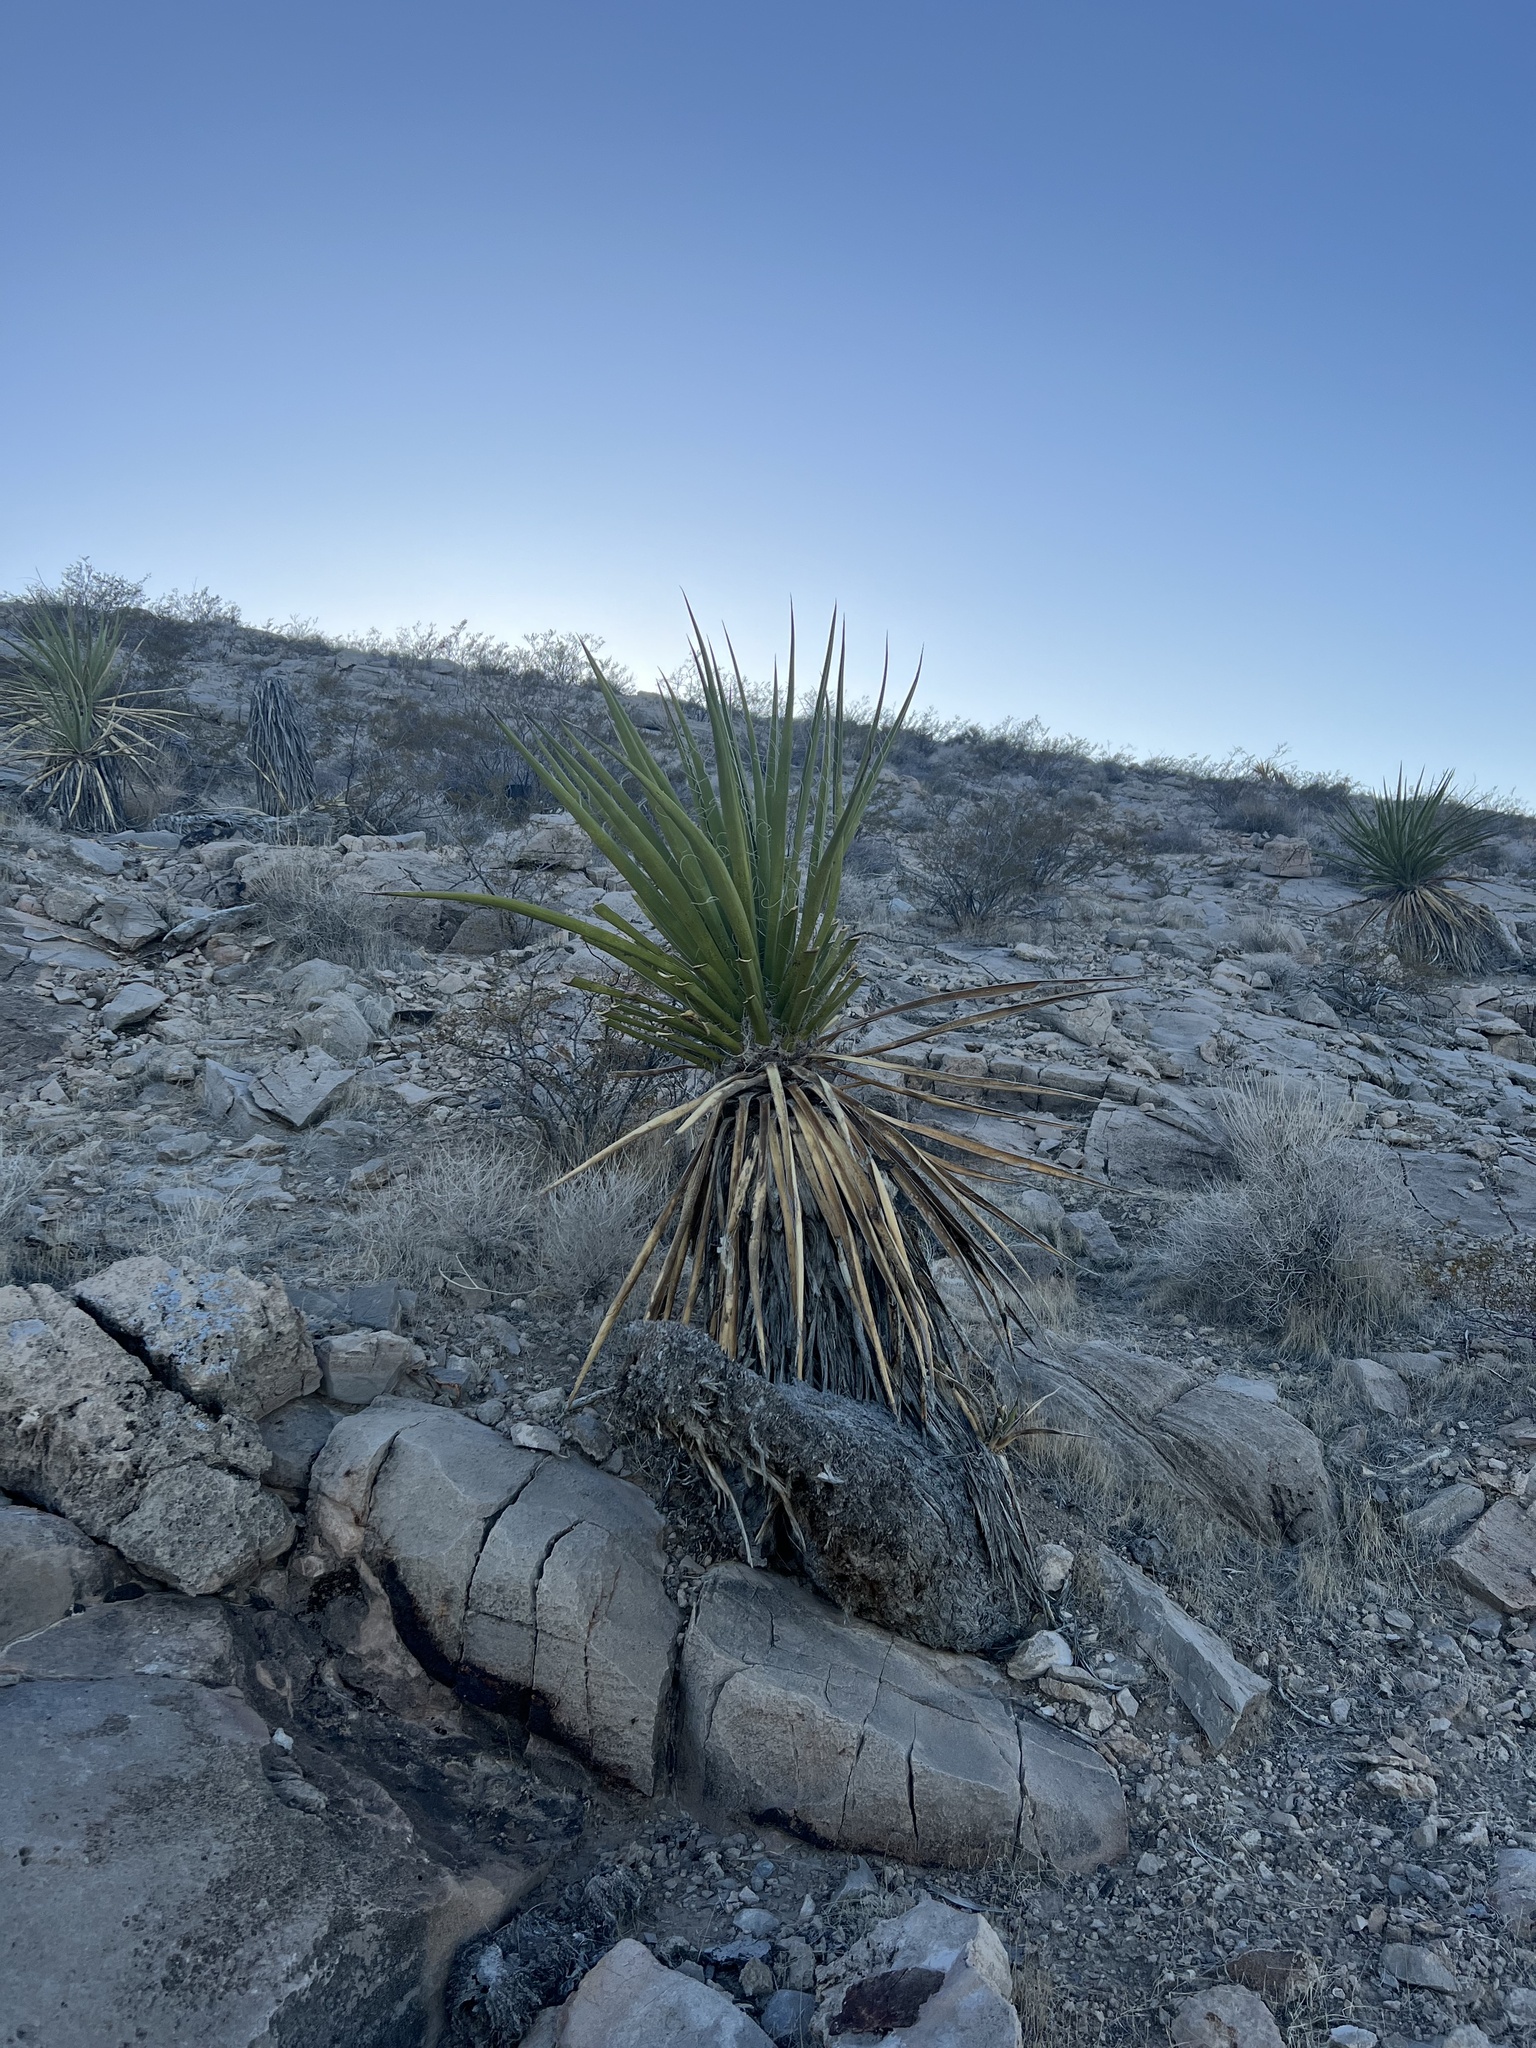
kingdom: Plantae
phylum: Tracheophyta
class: Liliopsida
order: Asparagales
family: Asparagaceae
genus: Yucca
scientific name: Yucca schidigera
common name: Mojave yucca
